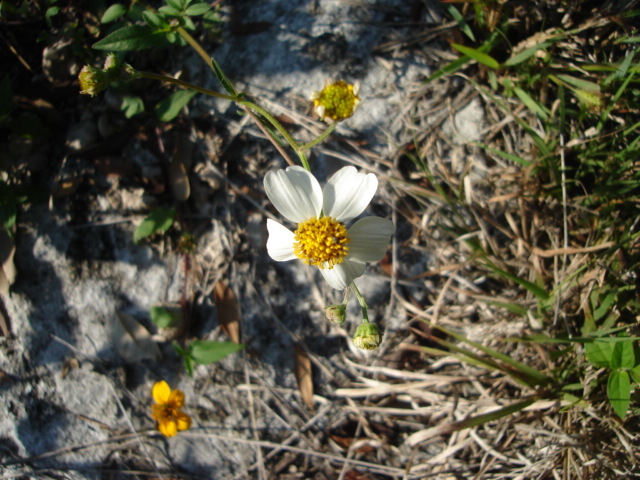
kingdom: Plantae
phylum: Tracheophyta
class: Magnoliopsida
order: Asterales
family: Asteraceae
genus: Bidens
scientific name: Bidens alba
